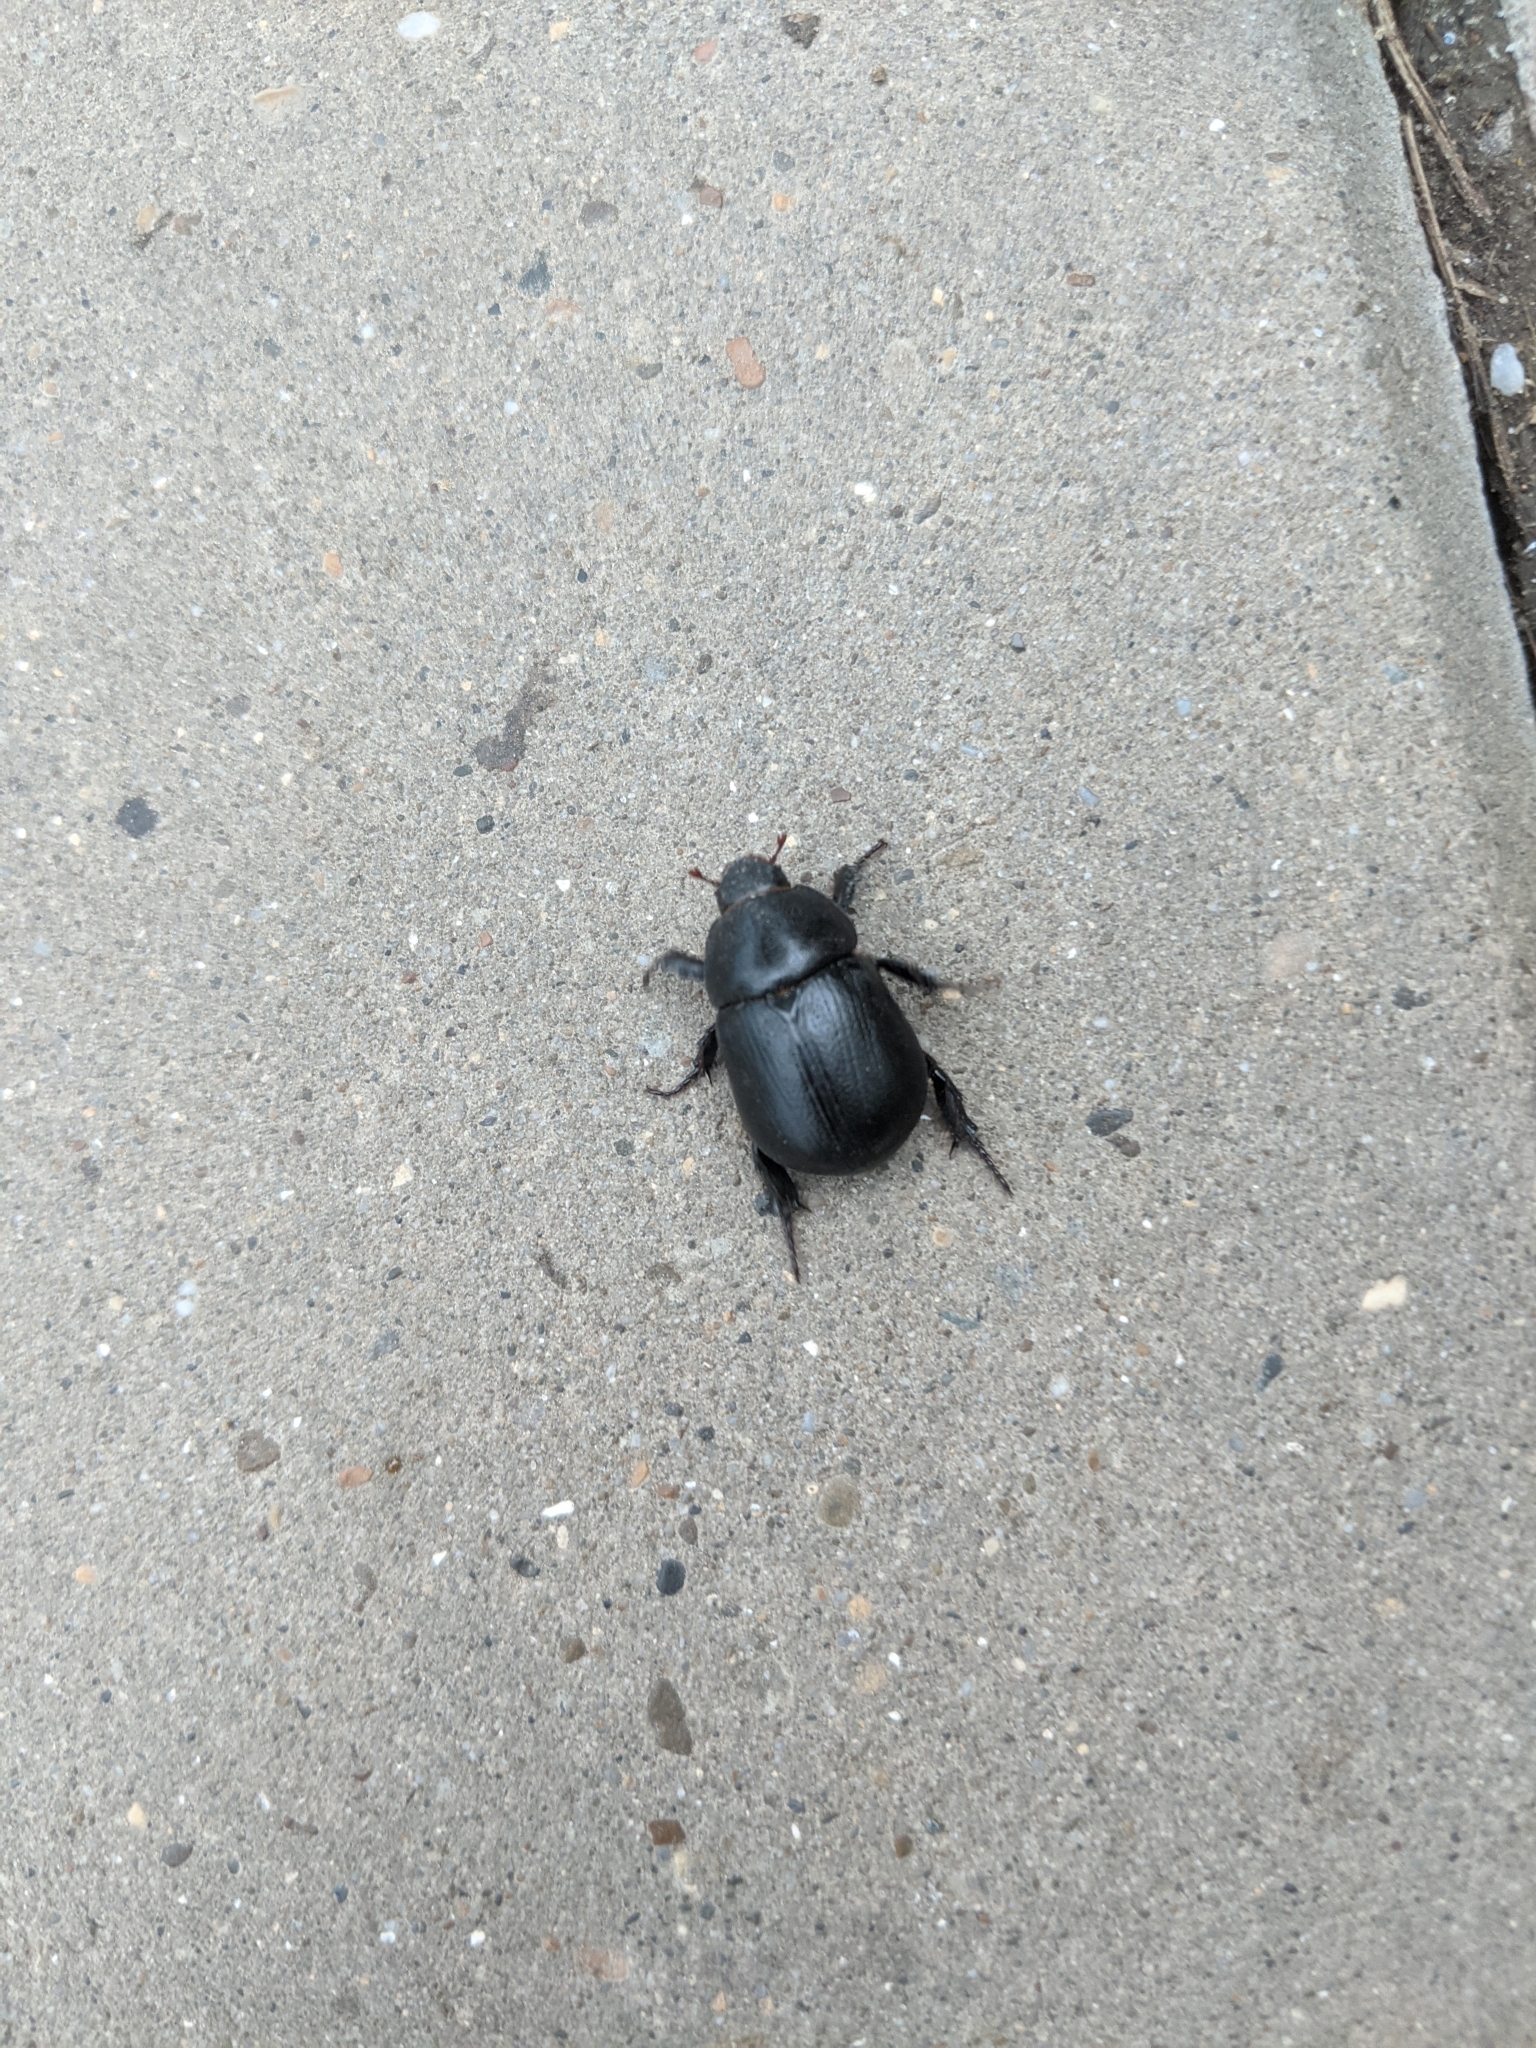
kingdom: Animalia
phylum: Arthropoda
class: Insecta
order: Coleoptera
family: Scarabaeidae
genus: Pentodon
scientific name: Pentodon idiota
